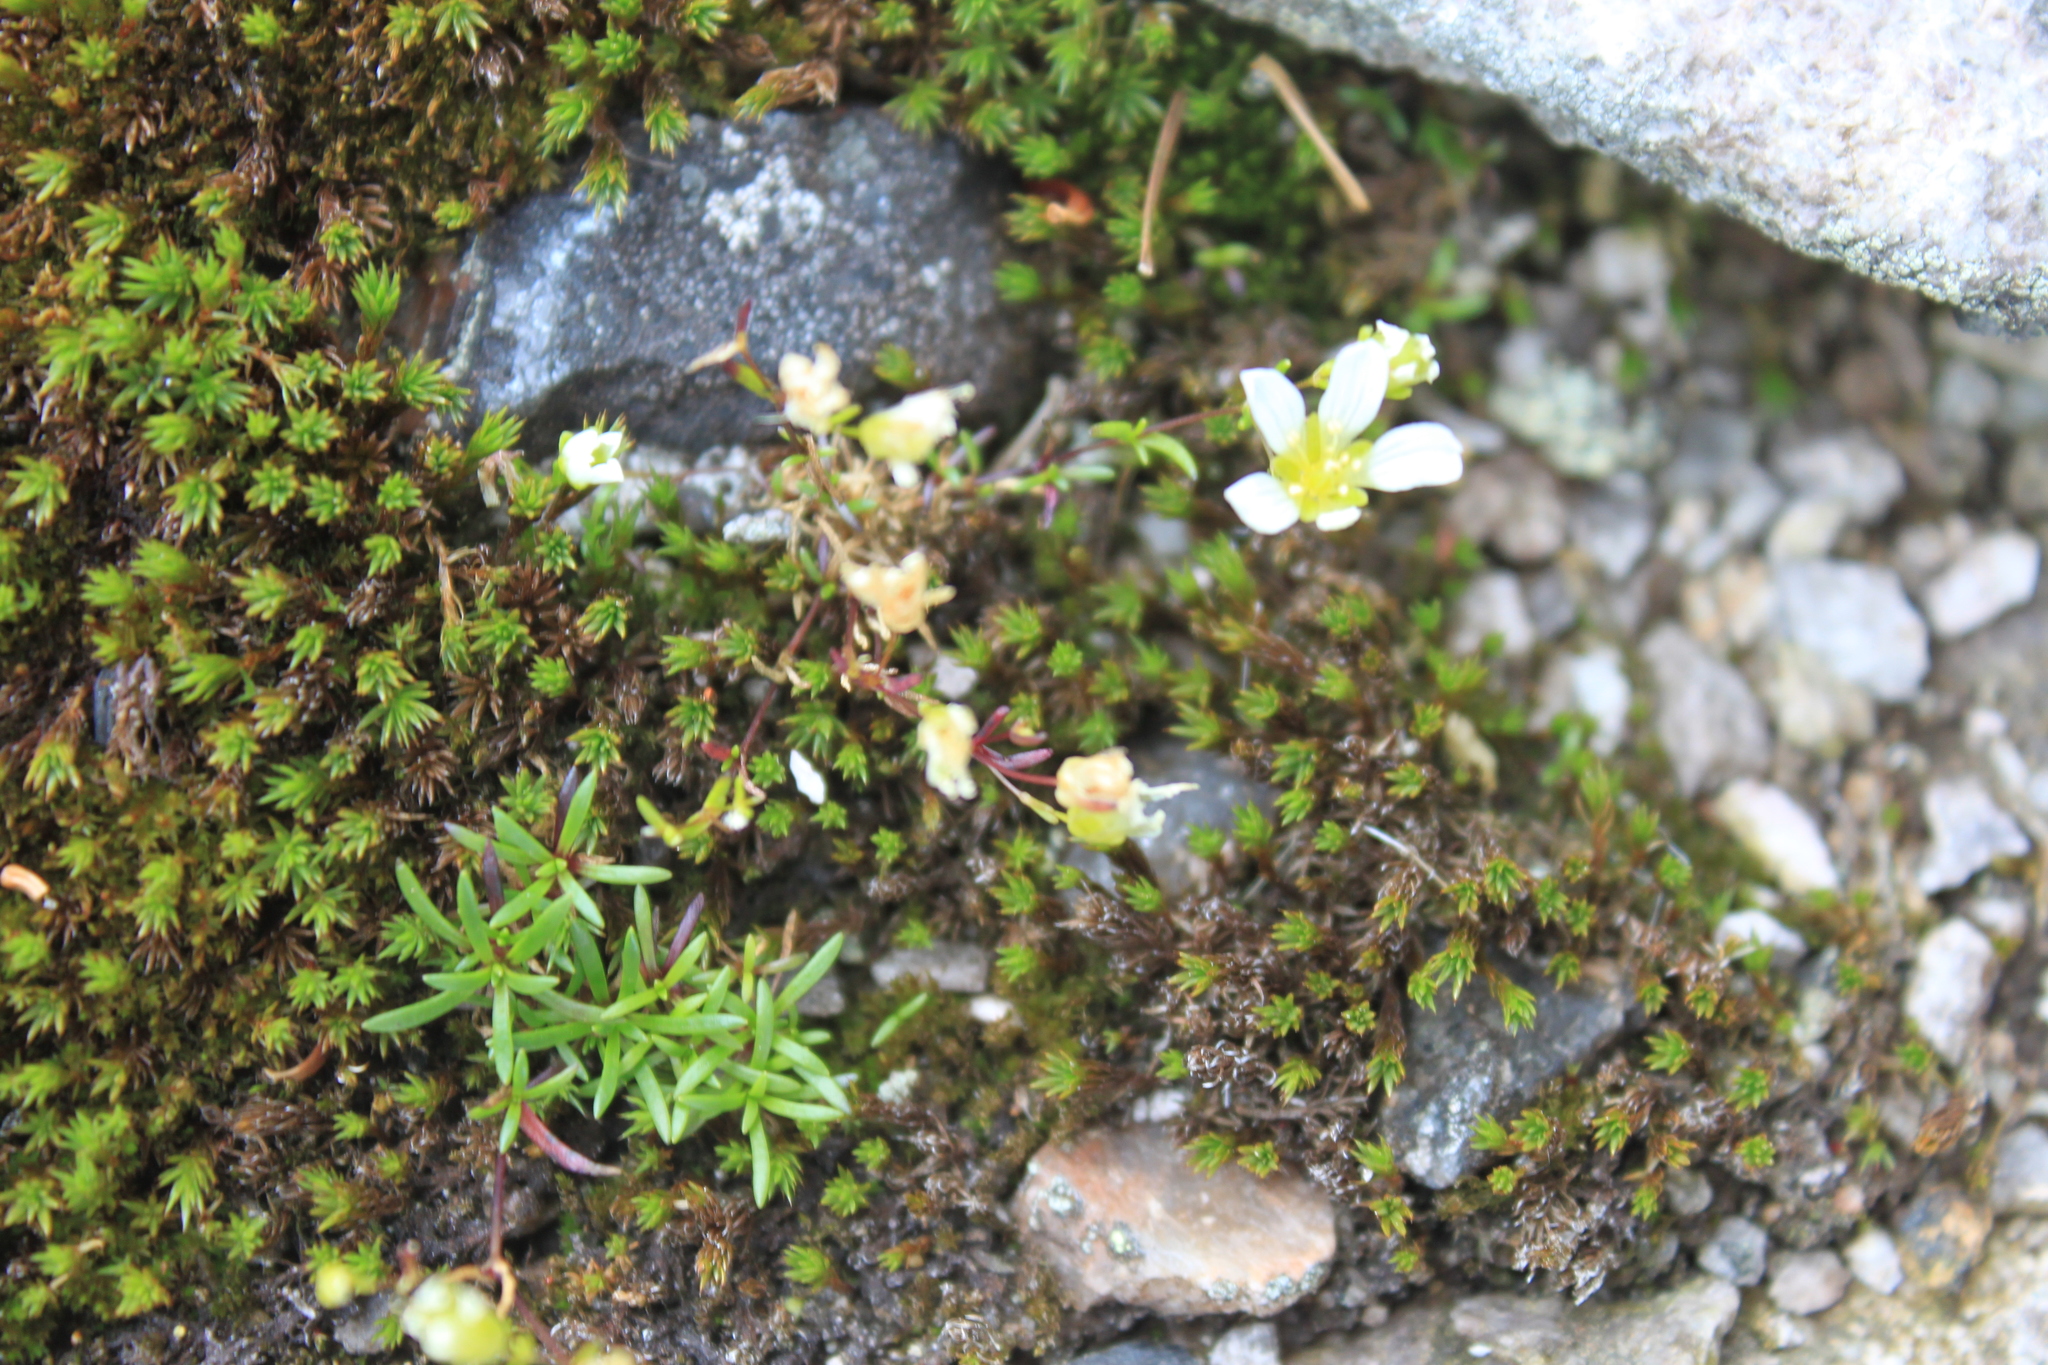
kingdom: Plantae
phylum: Tracheophyta
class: Magnoliopsida
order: Caryophyllales
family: Caryophyllaceae
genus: Geocarpon
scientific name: Geocarpon groenlandicum
